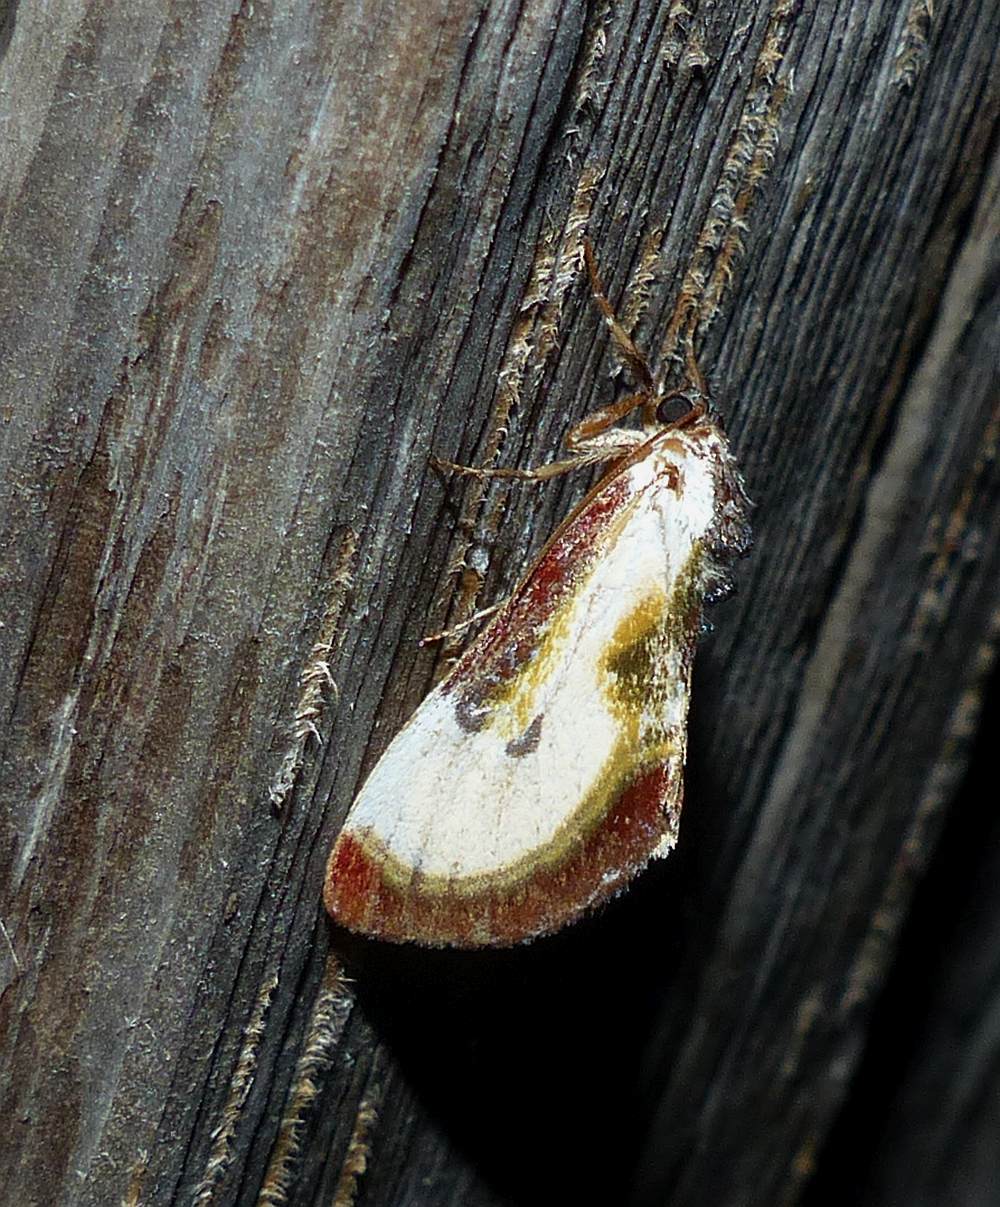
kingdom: Animalia
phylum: Arthropoda
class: Insecta
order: Lepidoptera
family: Noctuidae
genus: Eudryas
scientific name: Eudryas grata
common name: Beautiful wood-nymph
